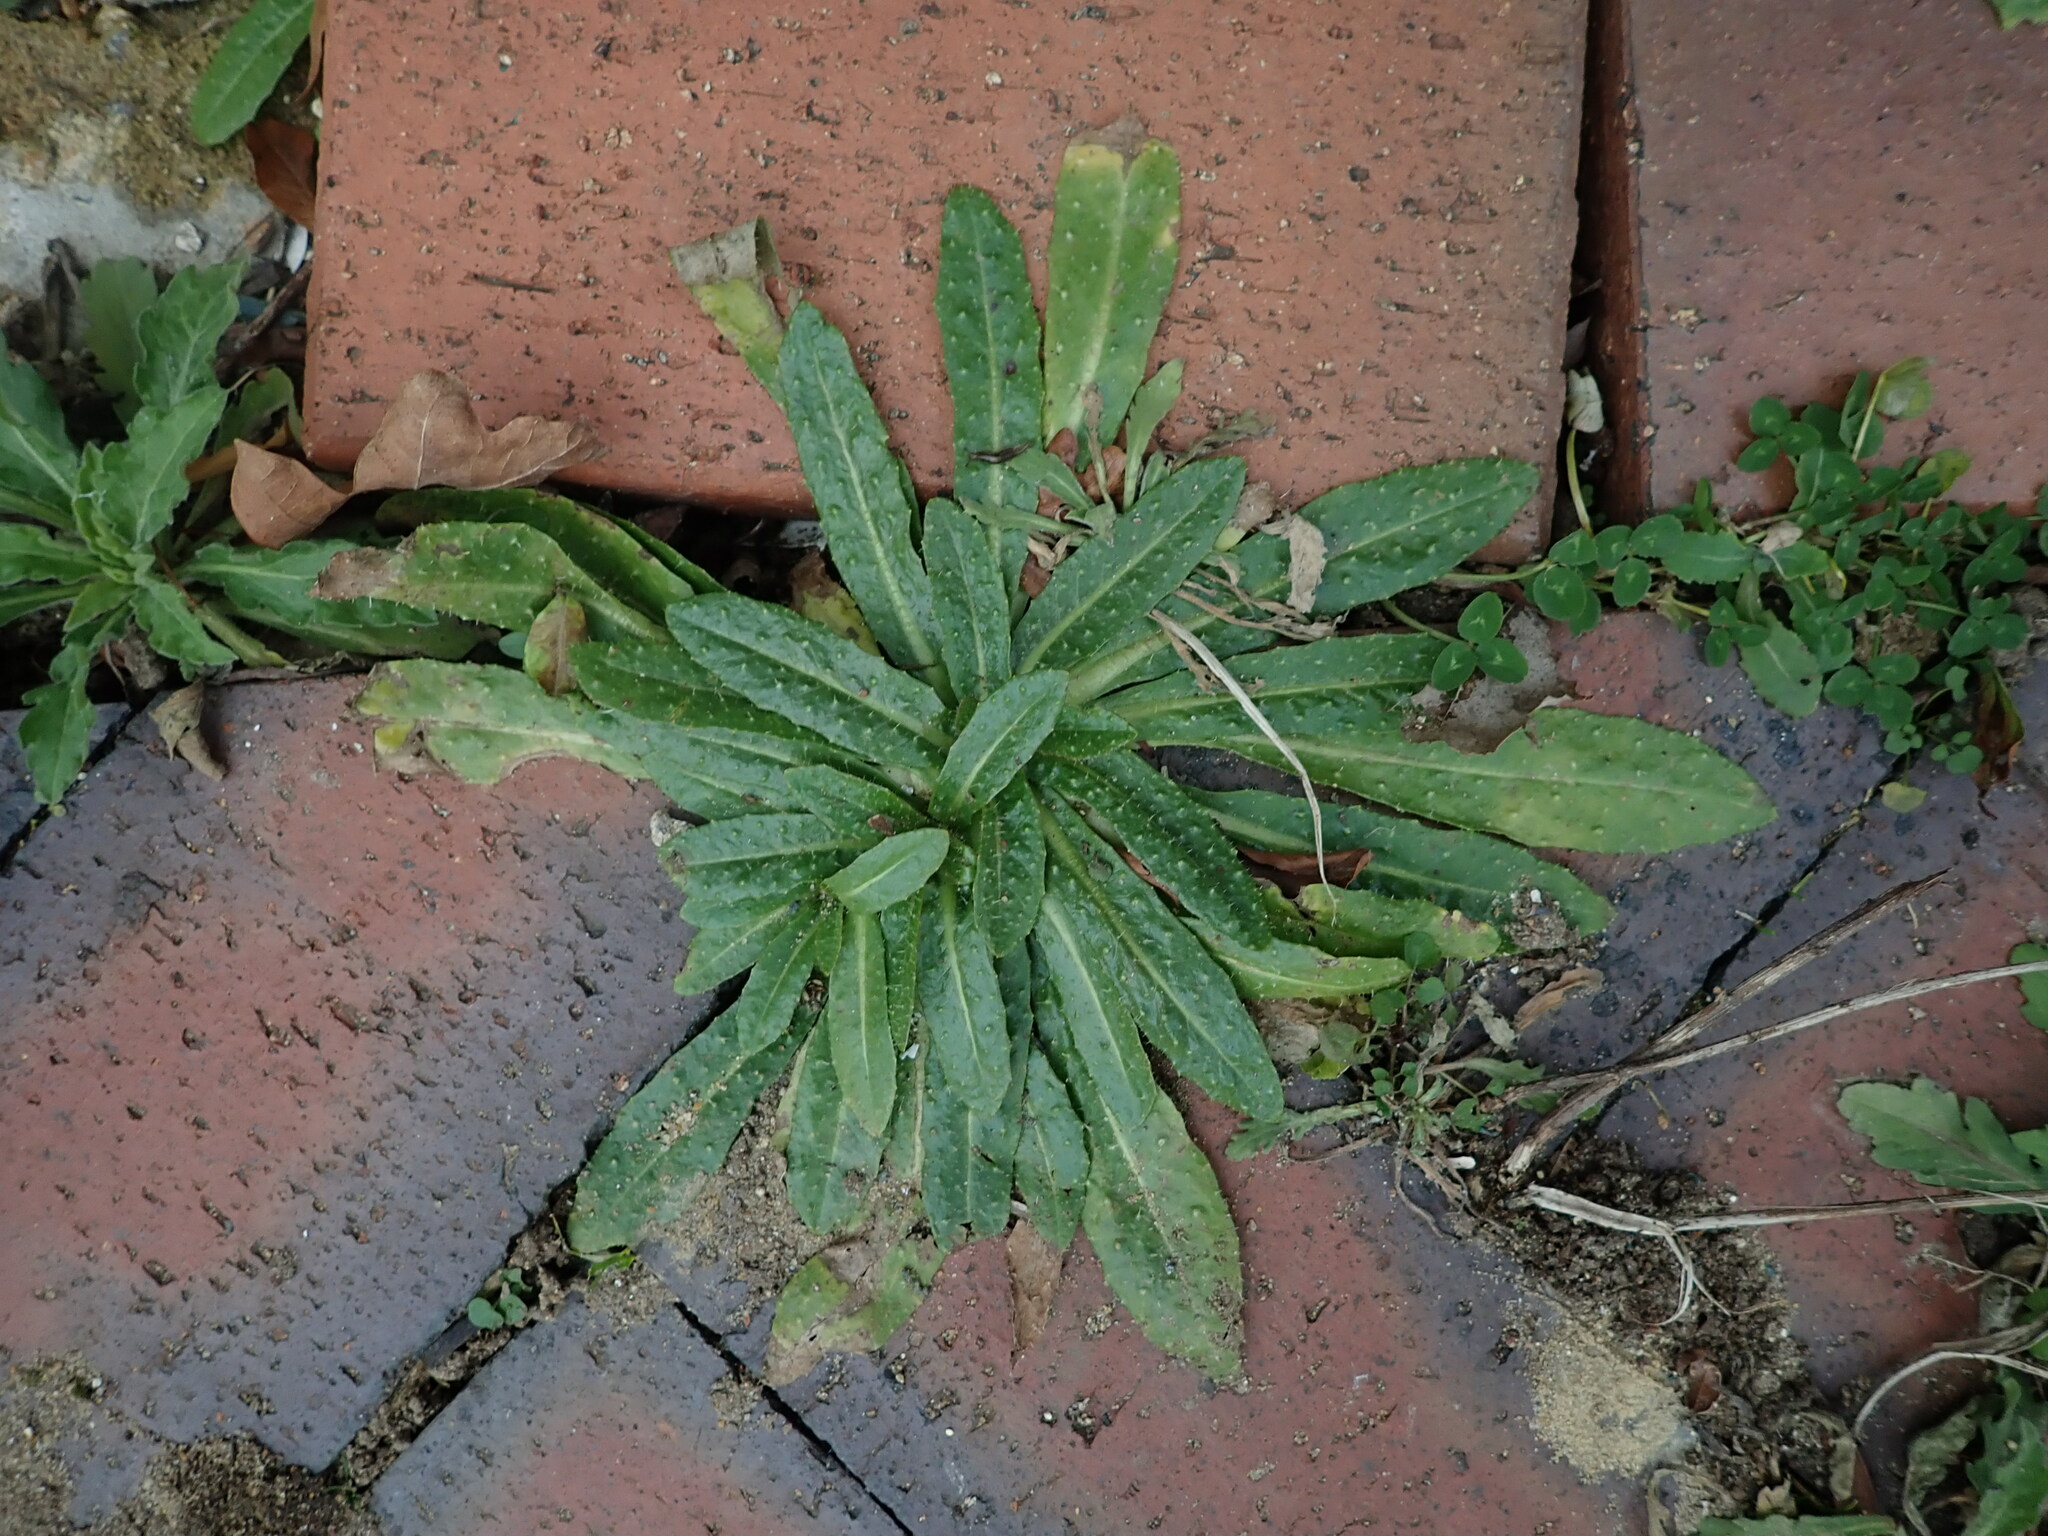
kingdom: Plantae
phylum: Tracheophyta
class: Magnoliopsida
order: Asterales
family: Asteraceae
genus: Helminthotheca
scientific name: Helminthotheca echioides
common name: Ox-tongue
